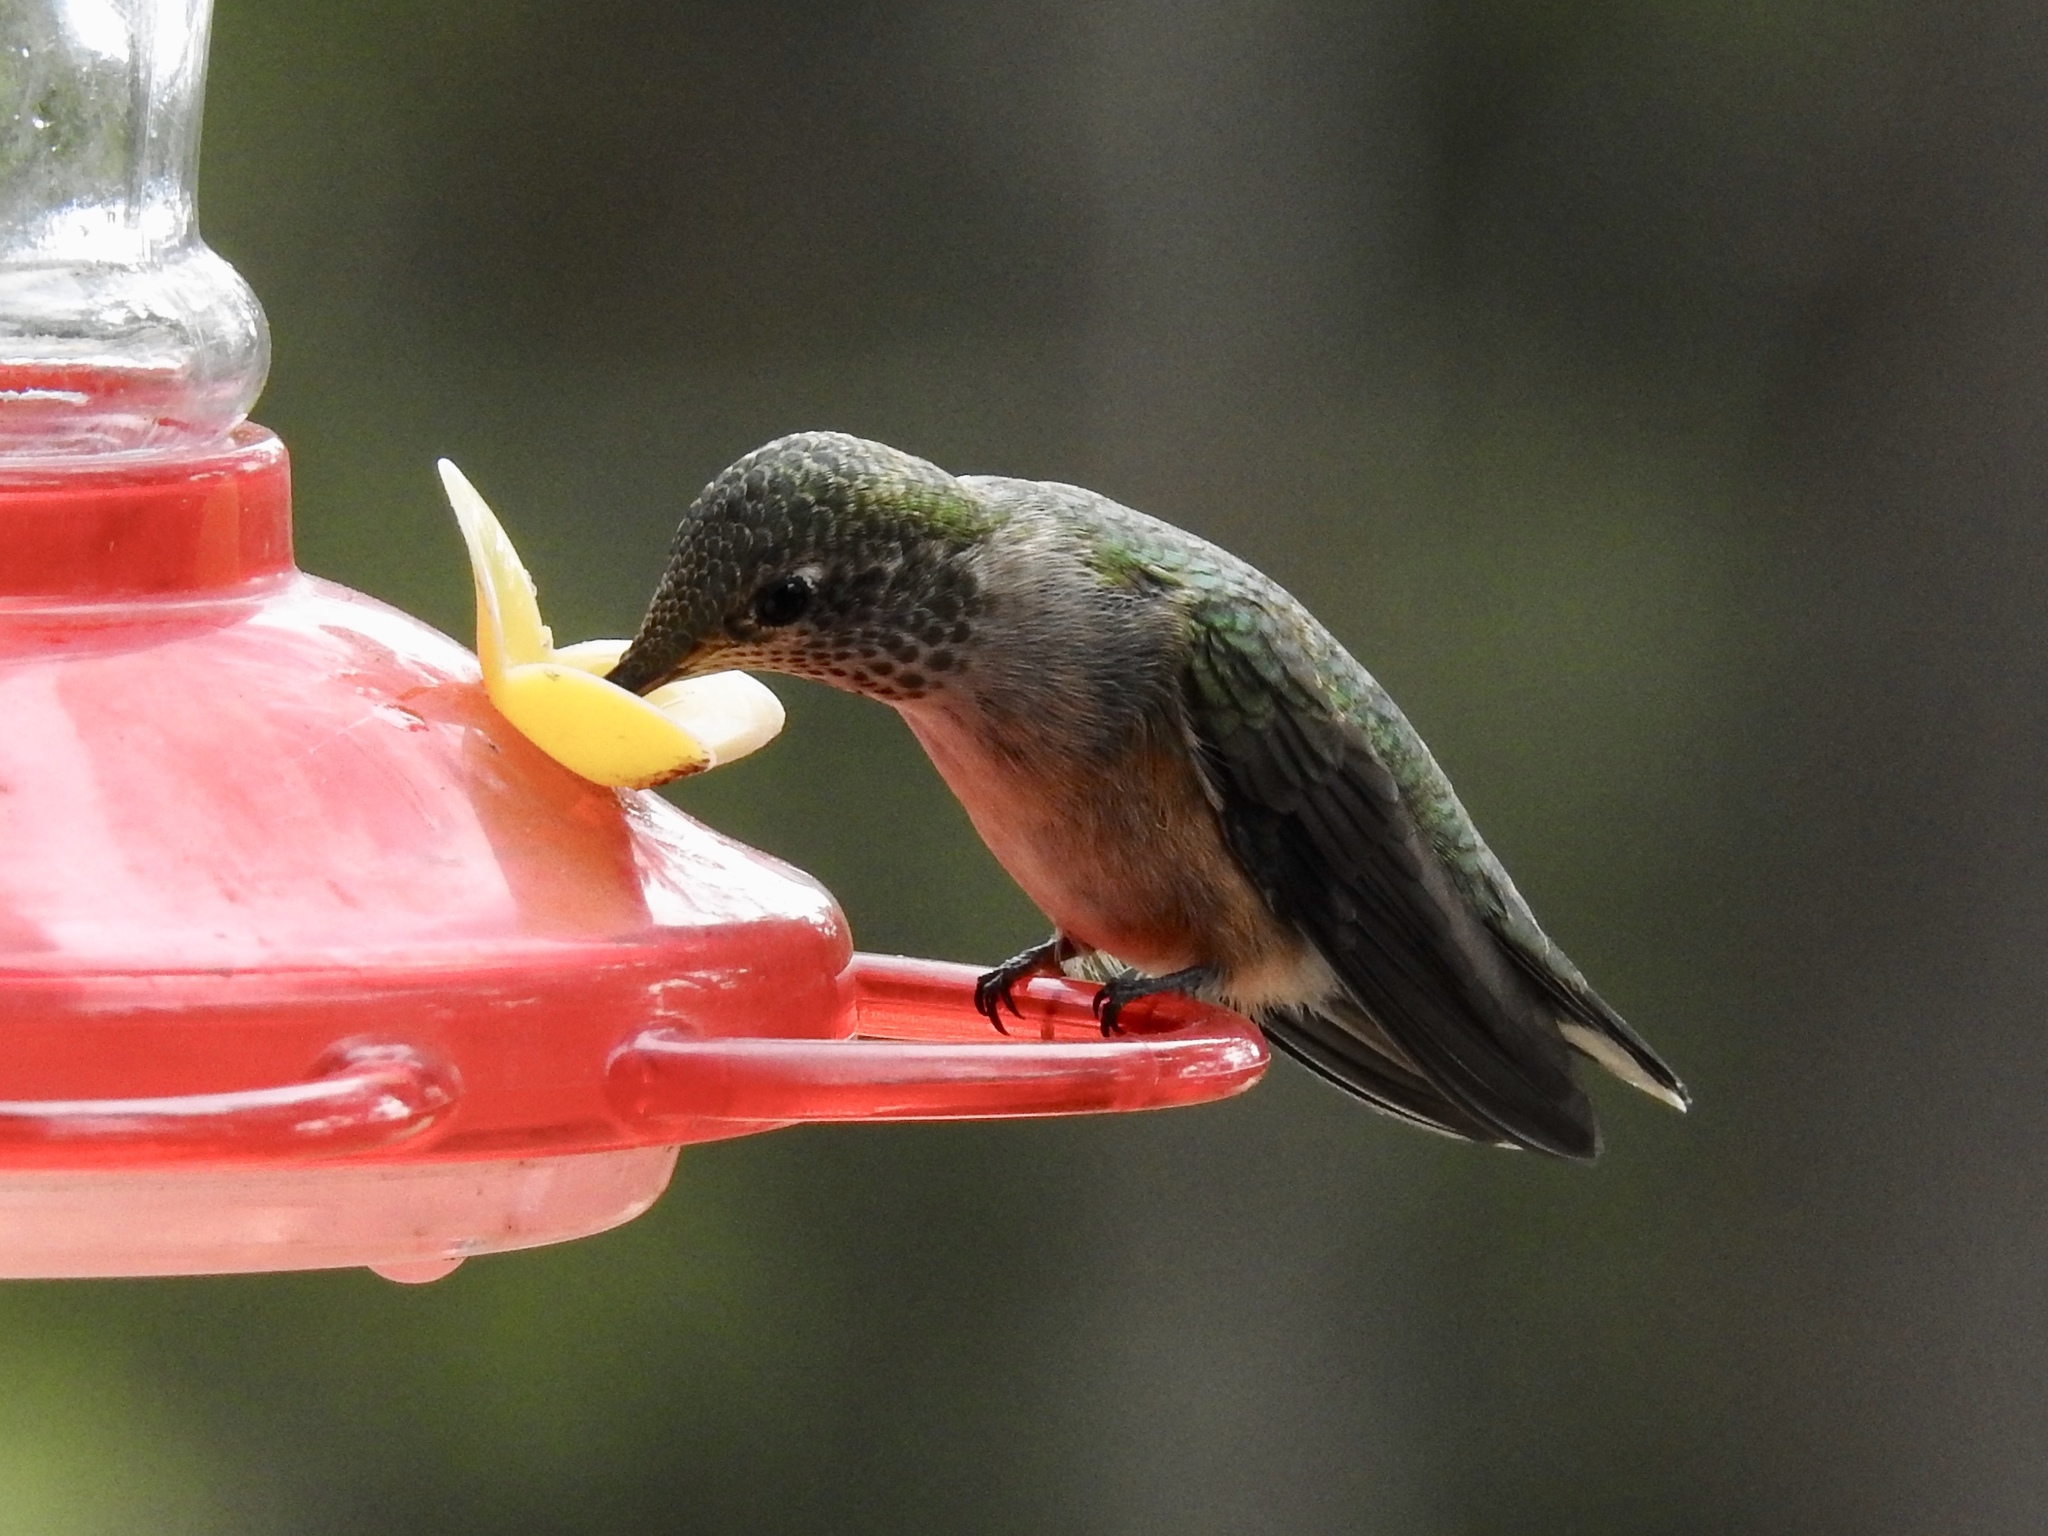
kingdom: Animalia
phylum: Chordata
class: Aves
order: Apodiformes
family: Trochilidae
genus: Selasphorus
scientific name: Selasphorus platycercus
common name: Broad-tailed hummingbird
